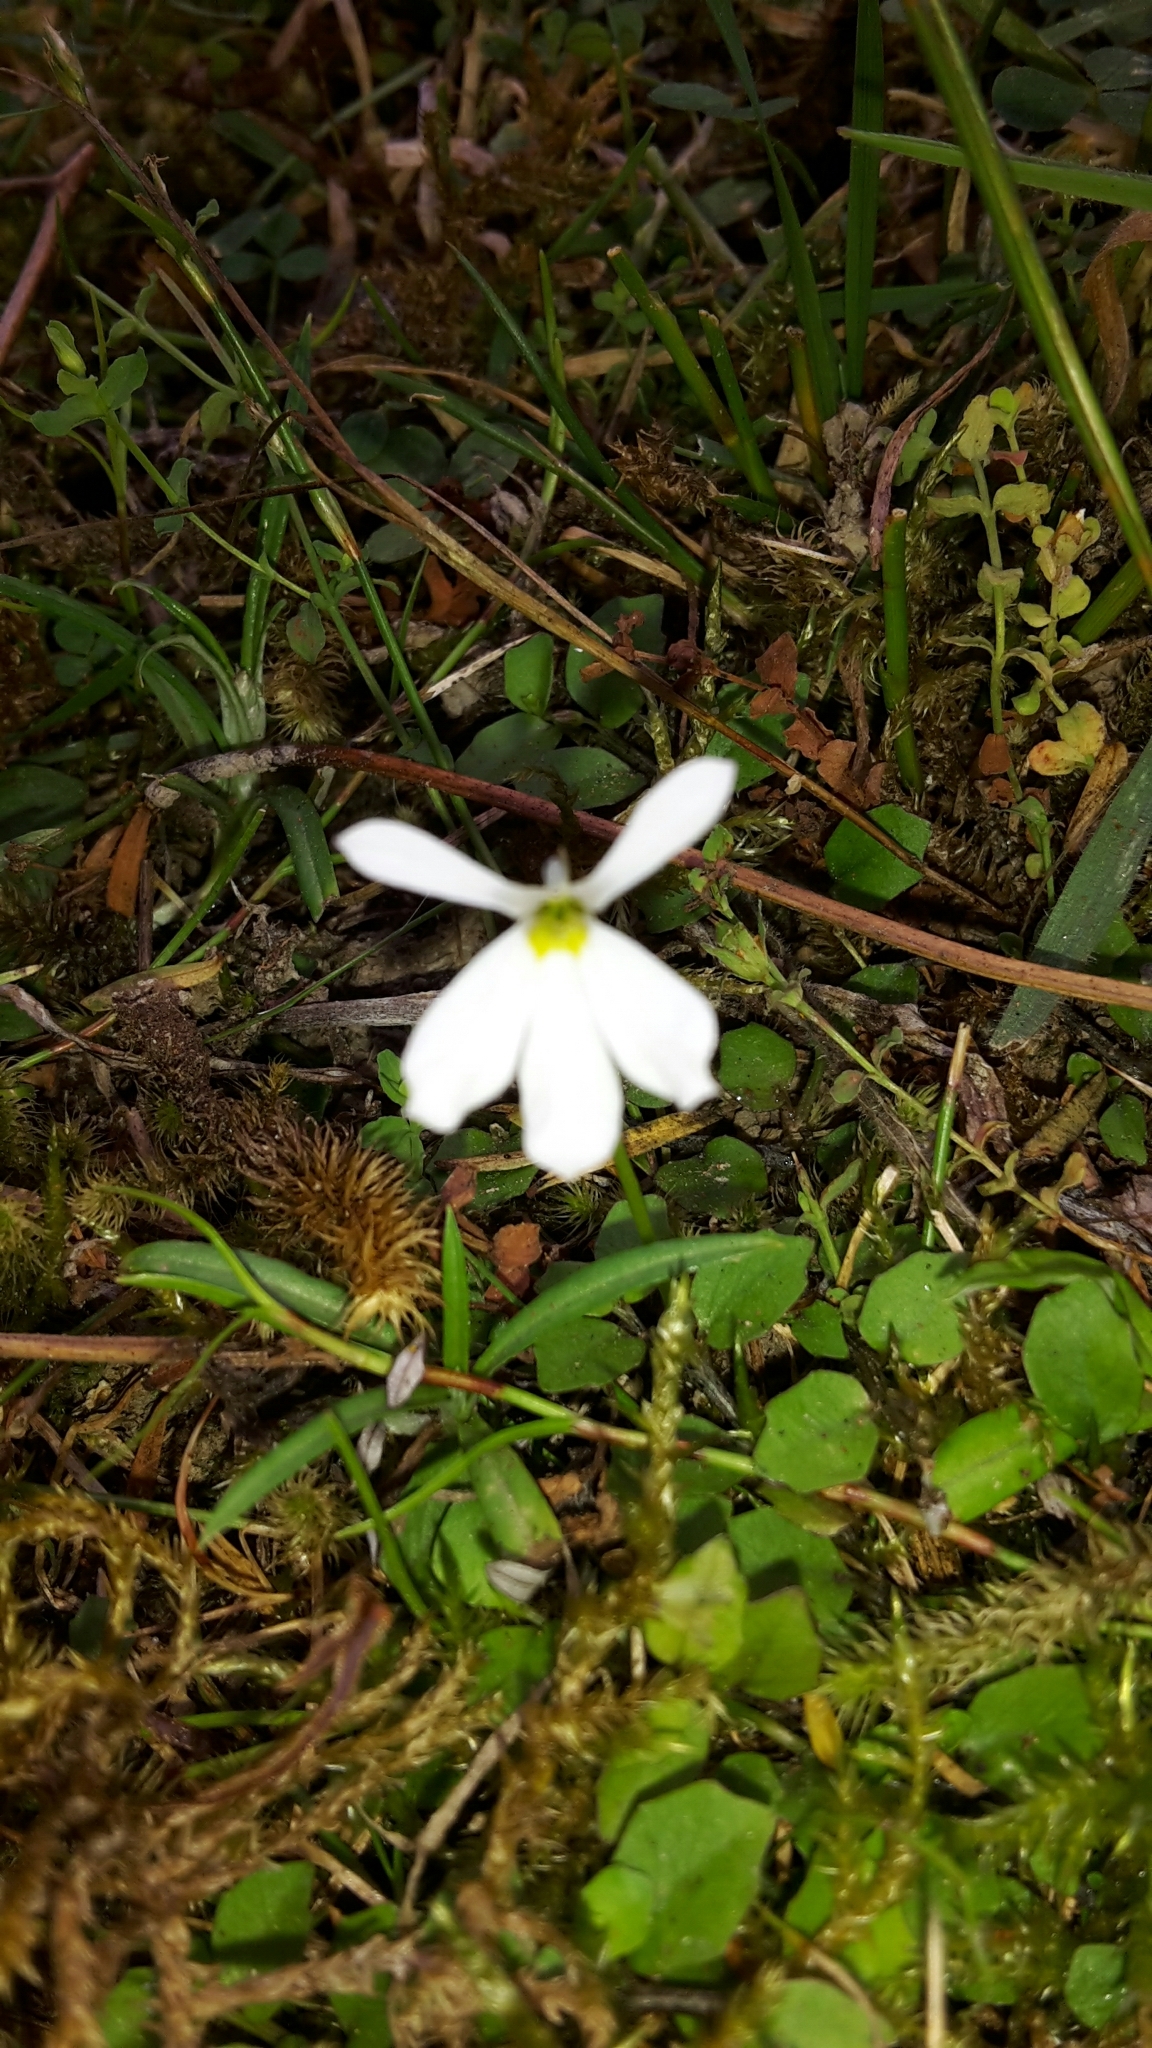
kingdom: Plantae
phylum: Tracheophyta
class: Magnoliopsida
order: Asterales
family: Campanulaceae
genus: Lobelia
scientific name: Lobelia angulata
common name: Lawn lobelia
